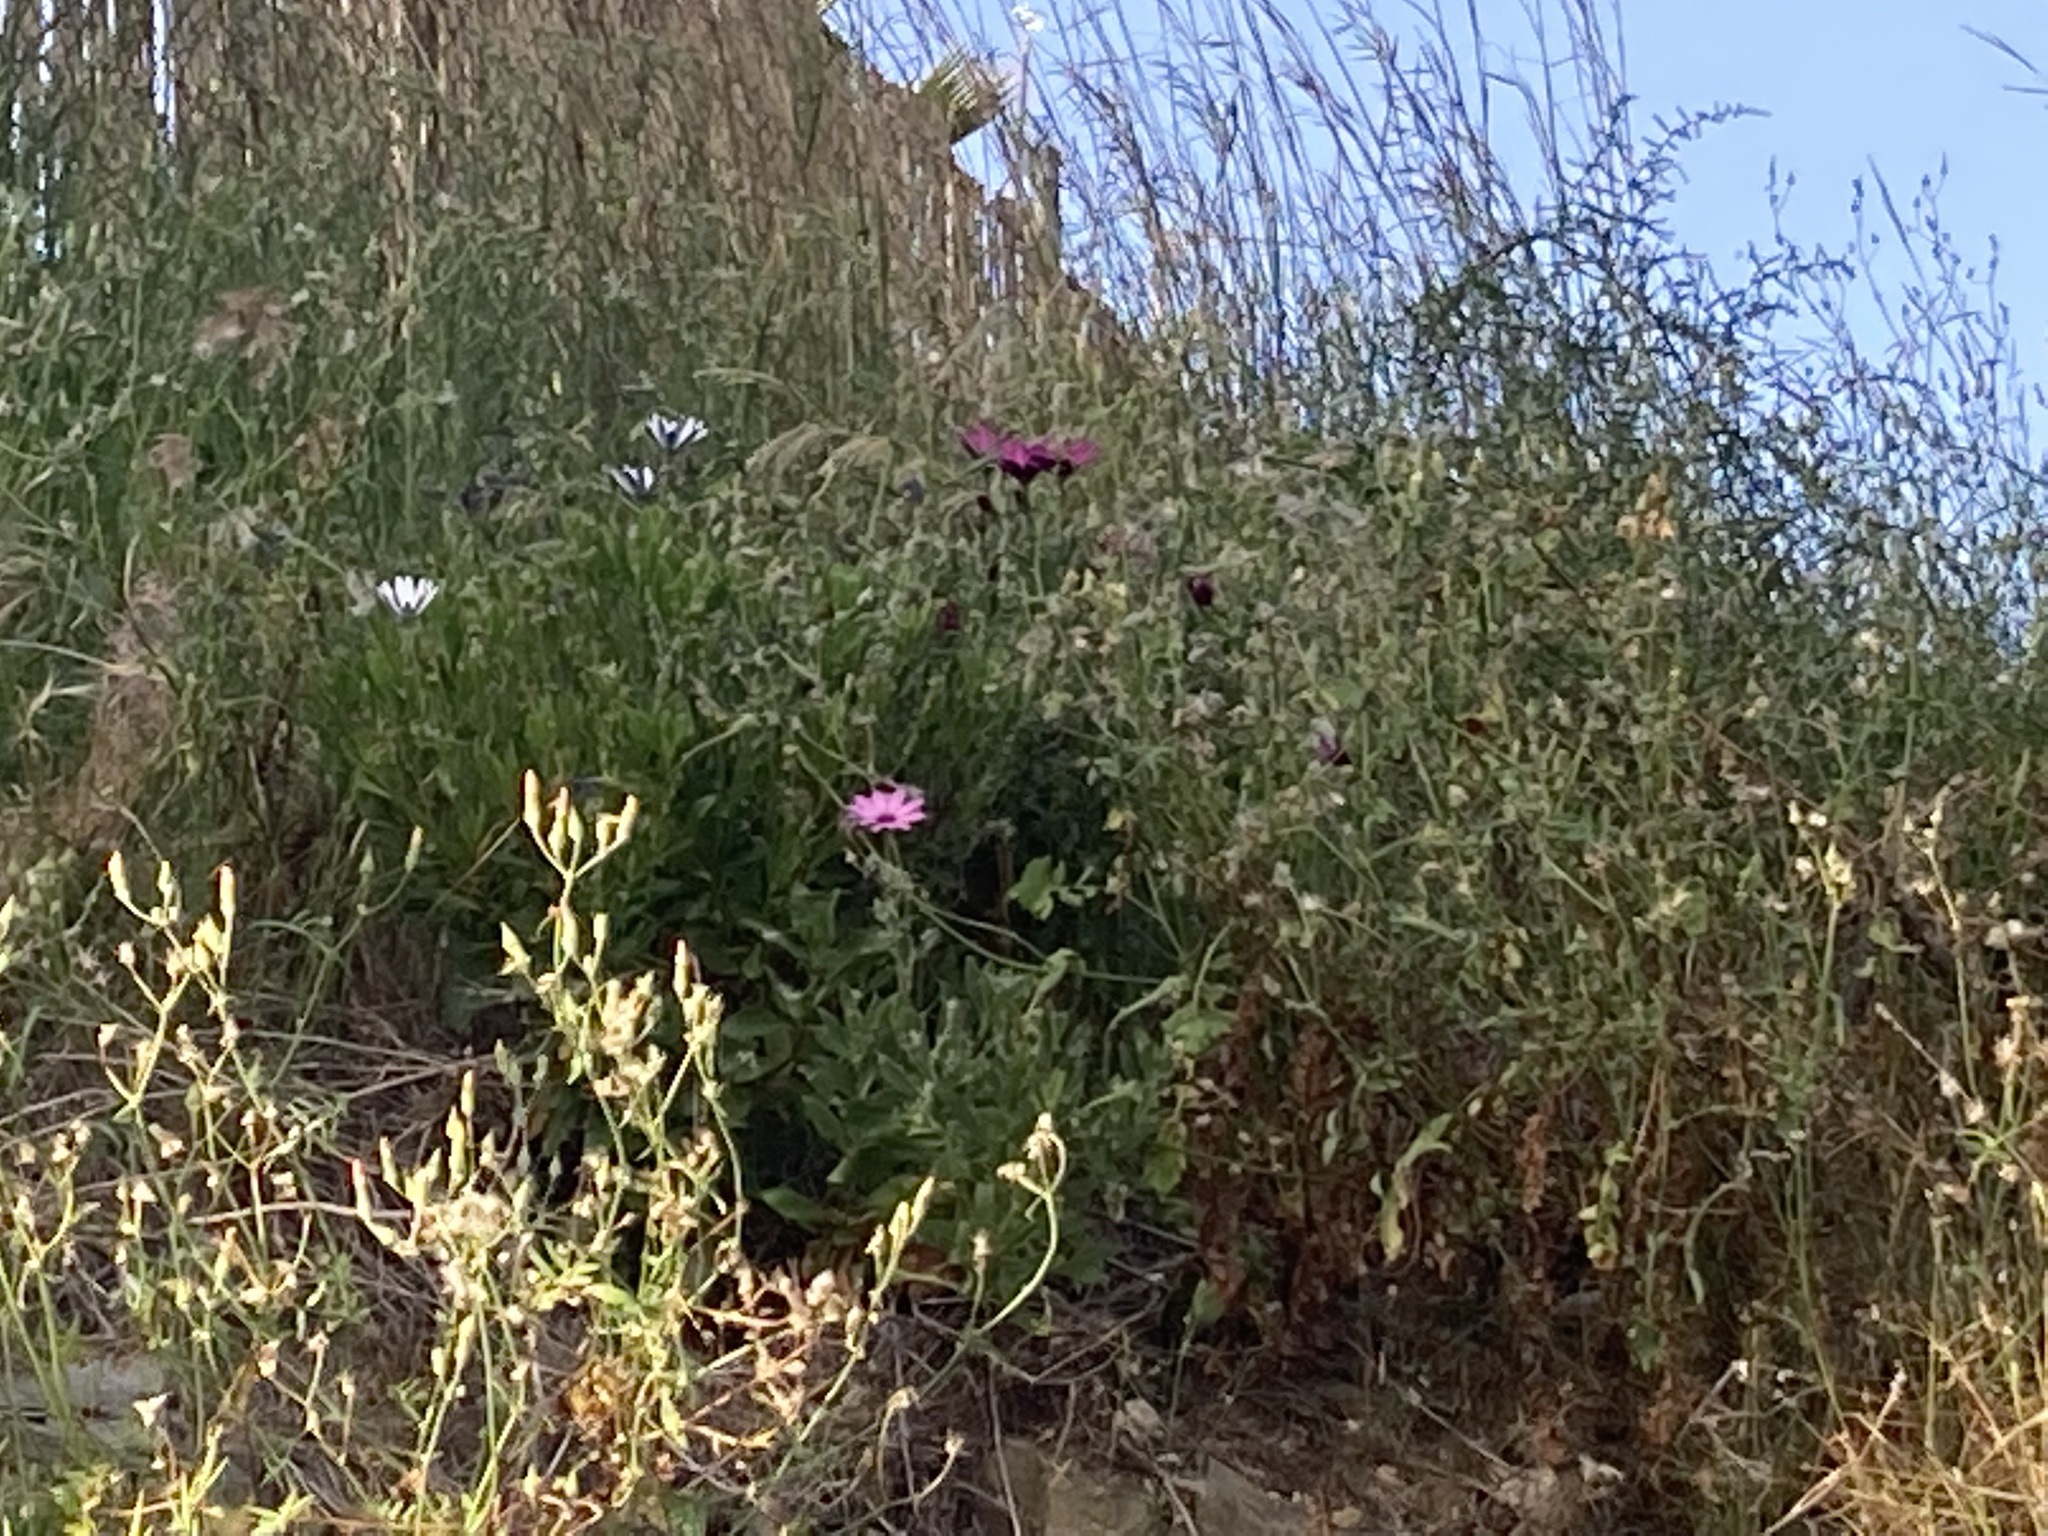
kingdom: Plantae
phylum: Tracheophyta
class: Magnoliopsida
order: Asterales
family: Asteraceae
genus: Dimorphotheca
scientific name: Dimorphotheca ecklonis
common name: Vanstaden's river daisy
